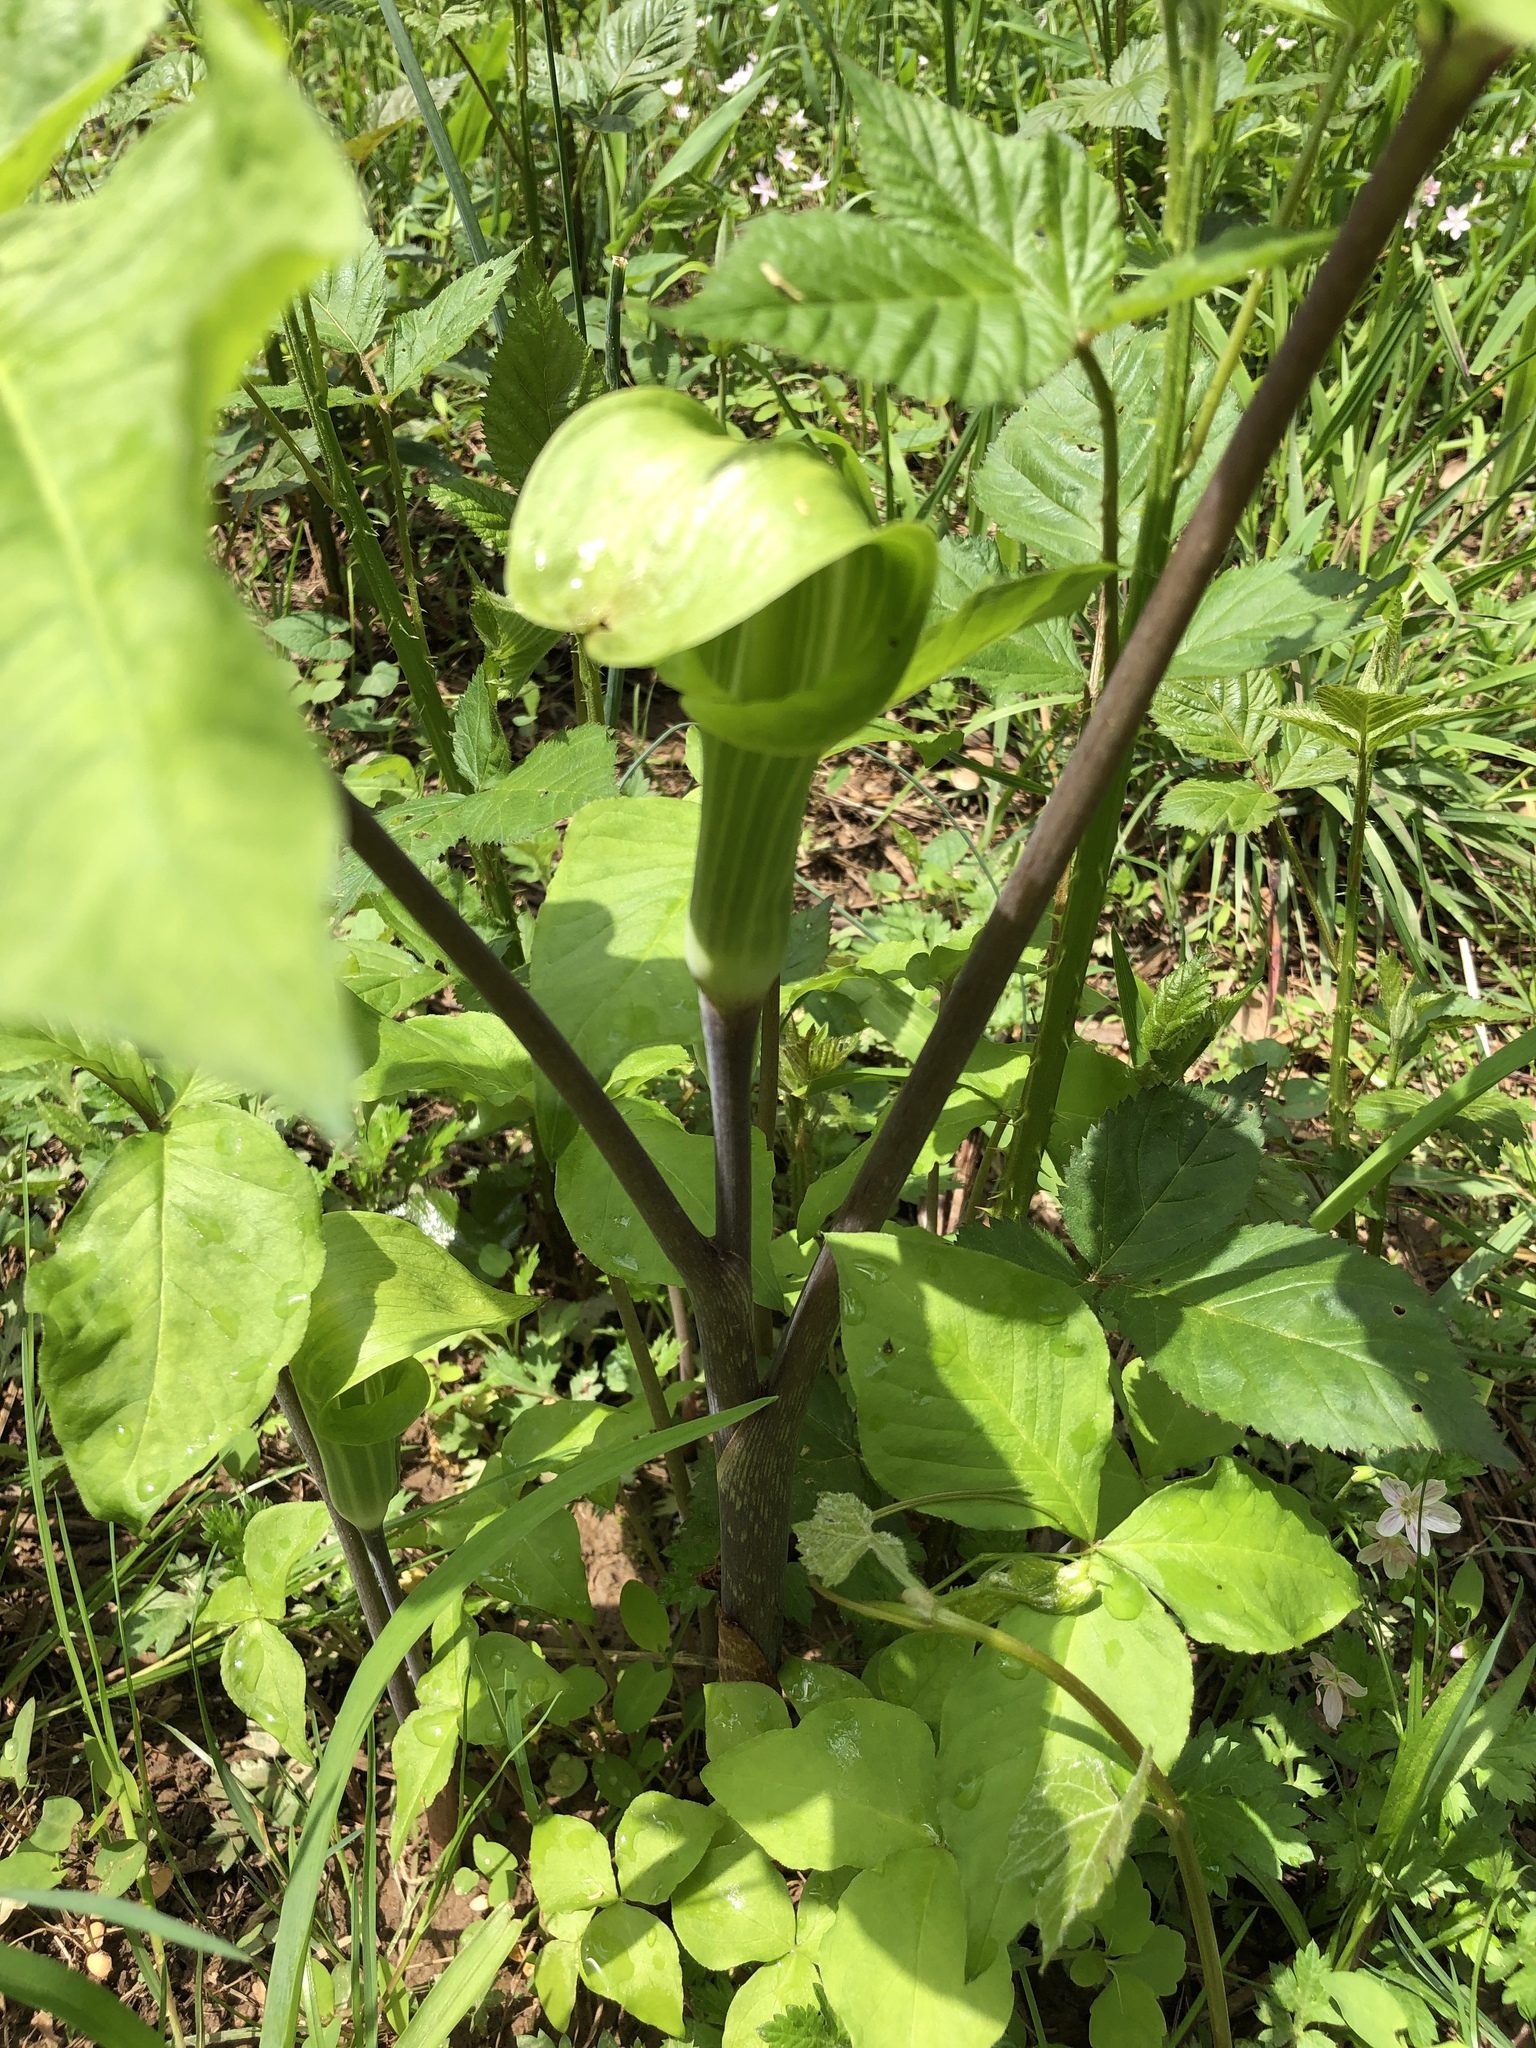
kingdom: Plantae
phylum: Tracheophyta
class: Liliopsida
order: Alismatales
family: Araceae
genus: Arisaema
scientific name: Arisaema triphyllum
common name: Jack-in-the-pulpit
